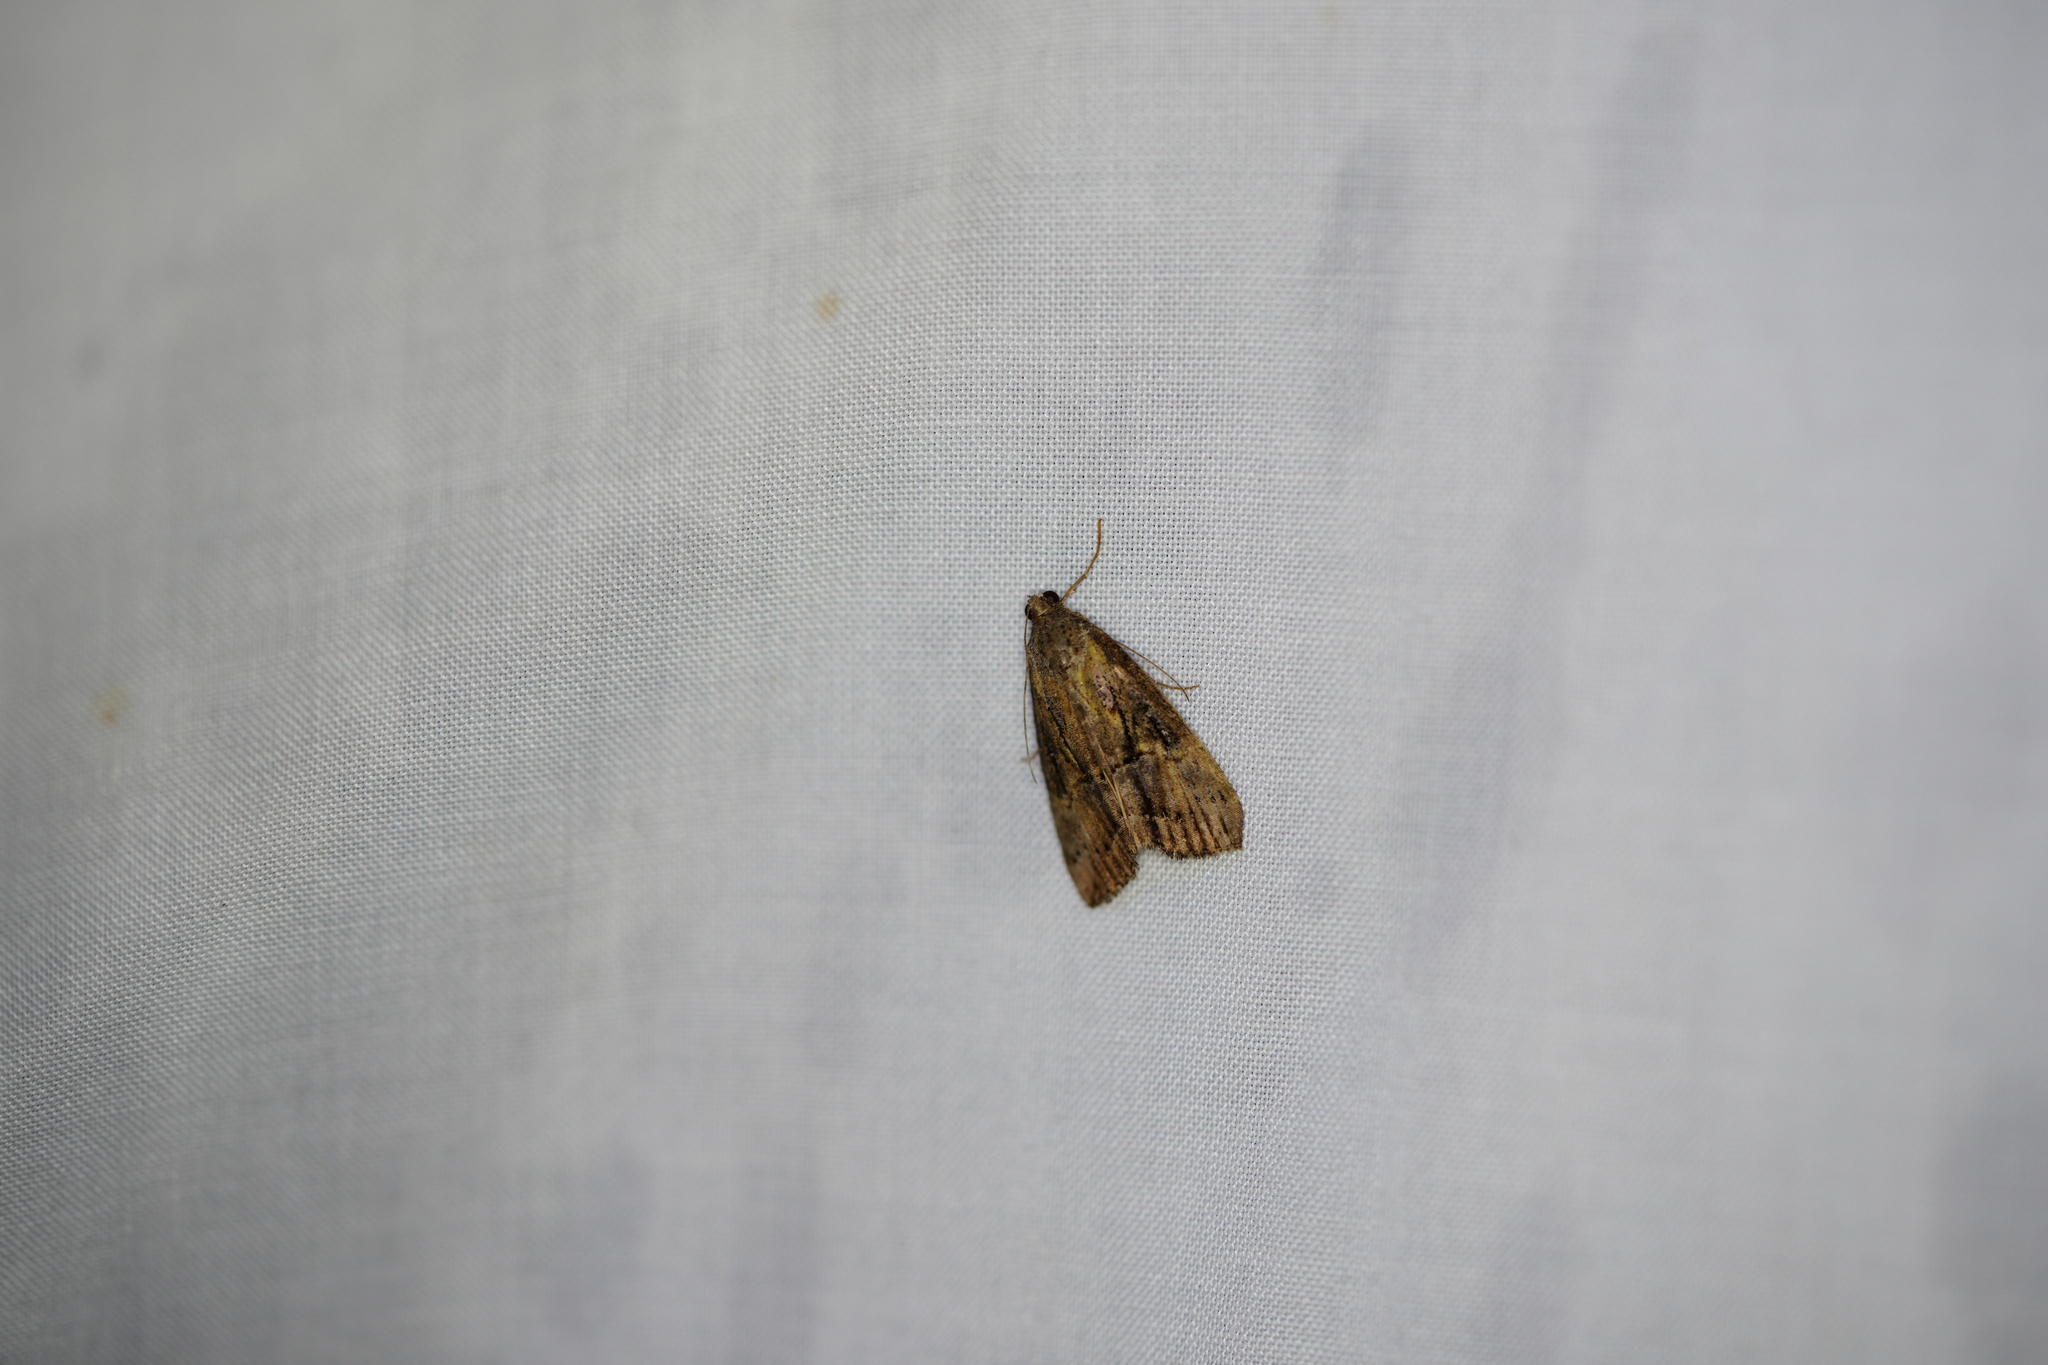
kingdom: Animalia
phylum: Arthropoda
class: Insecta
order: Lepidoptera
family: Erebidae
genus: Hypena
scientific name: Hypena scabra
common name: Green cloverworm
